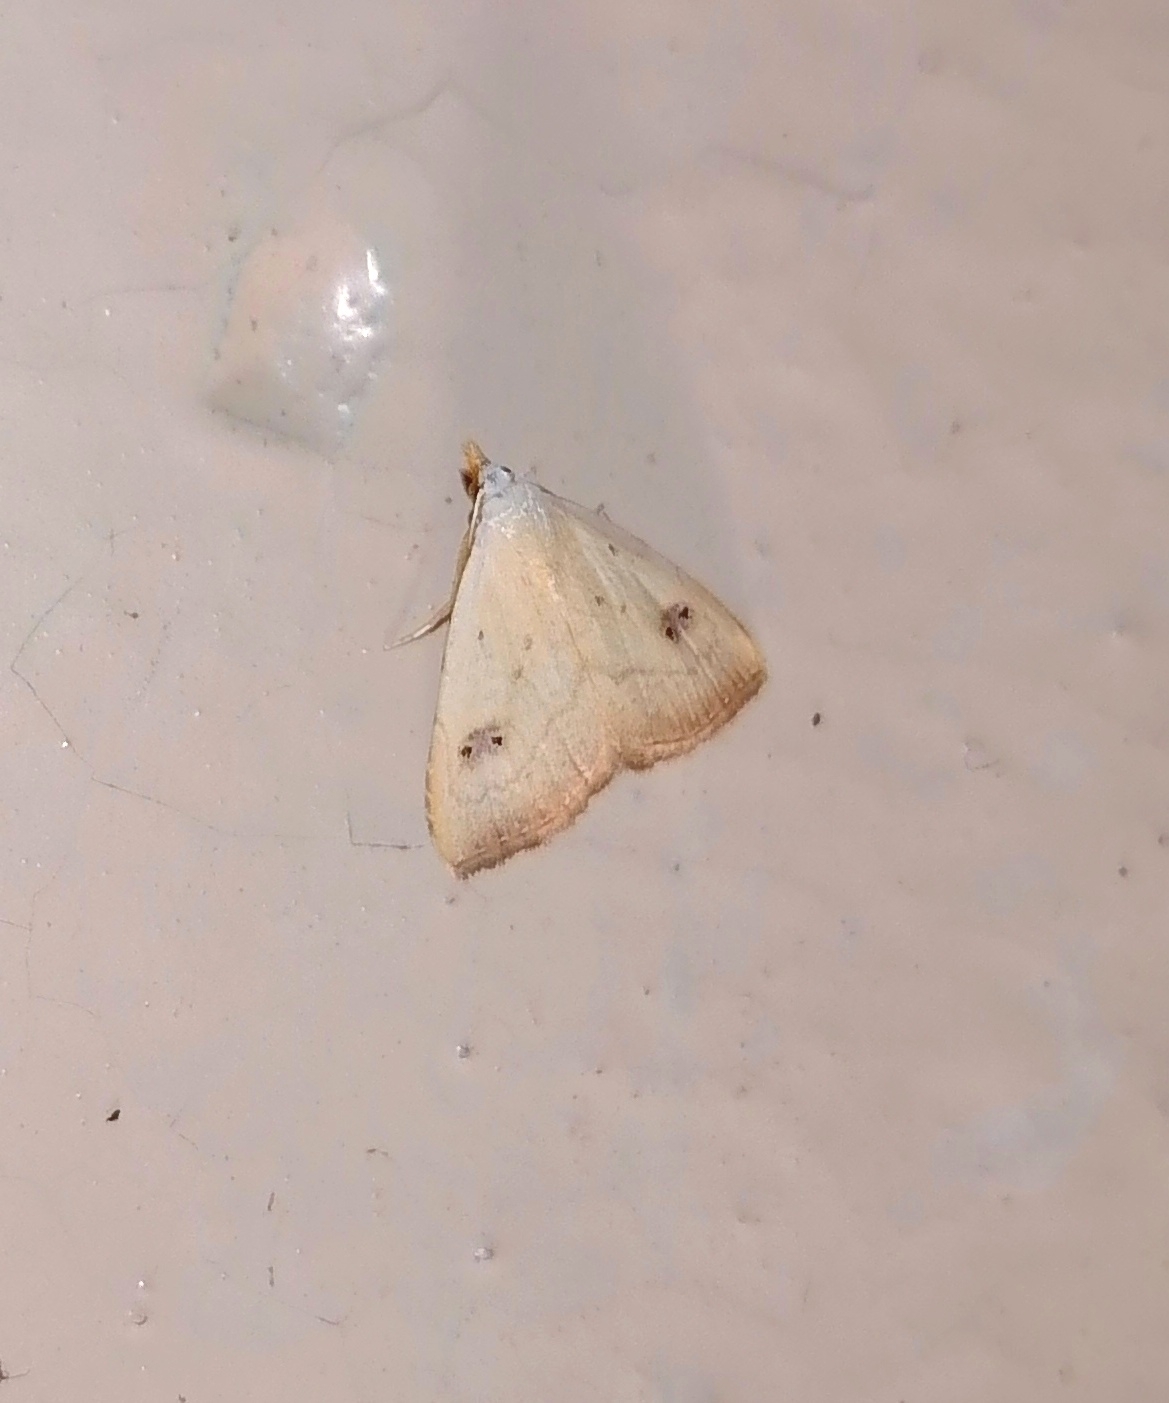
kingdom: Animalia
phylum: Arthropoda
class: Insecta
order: Lepidoptera
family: Erebidae
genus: Rivula
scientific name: Rivula sericealis
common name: Straw dot
